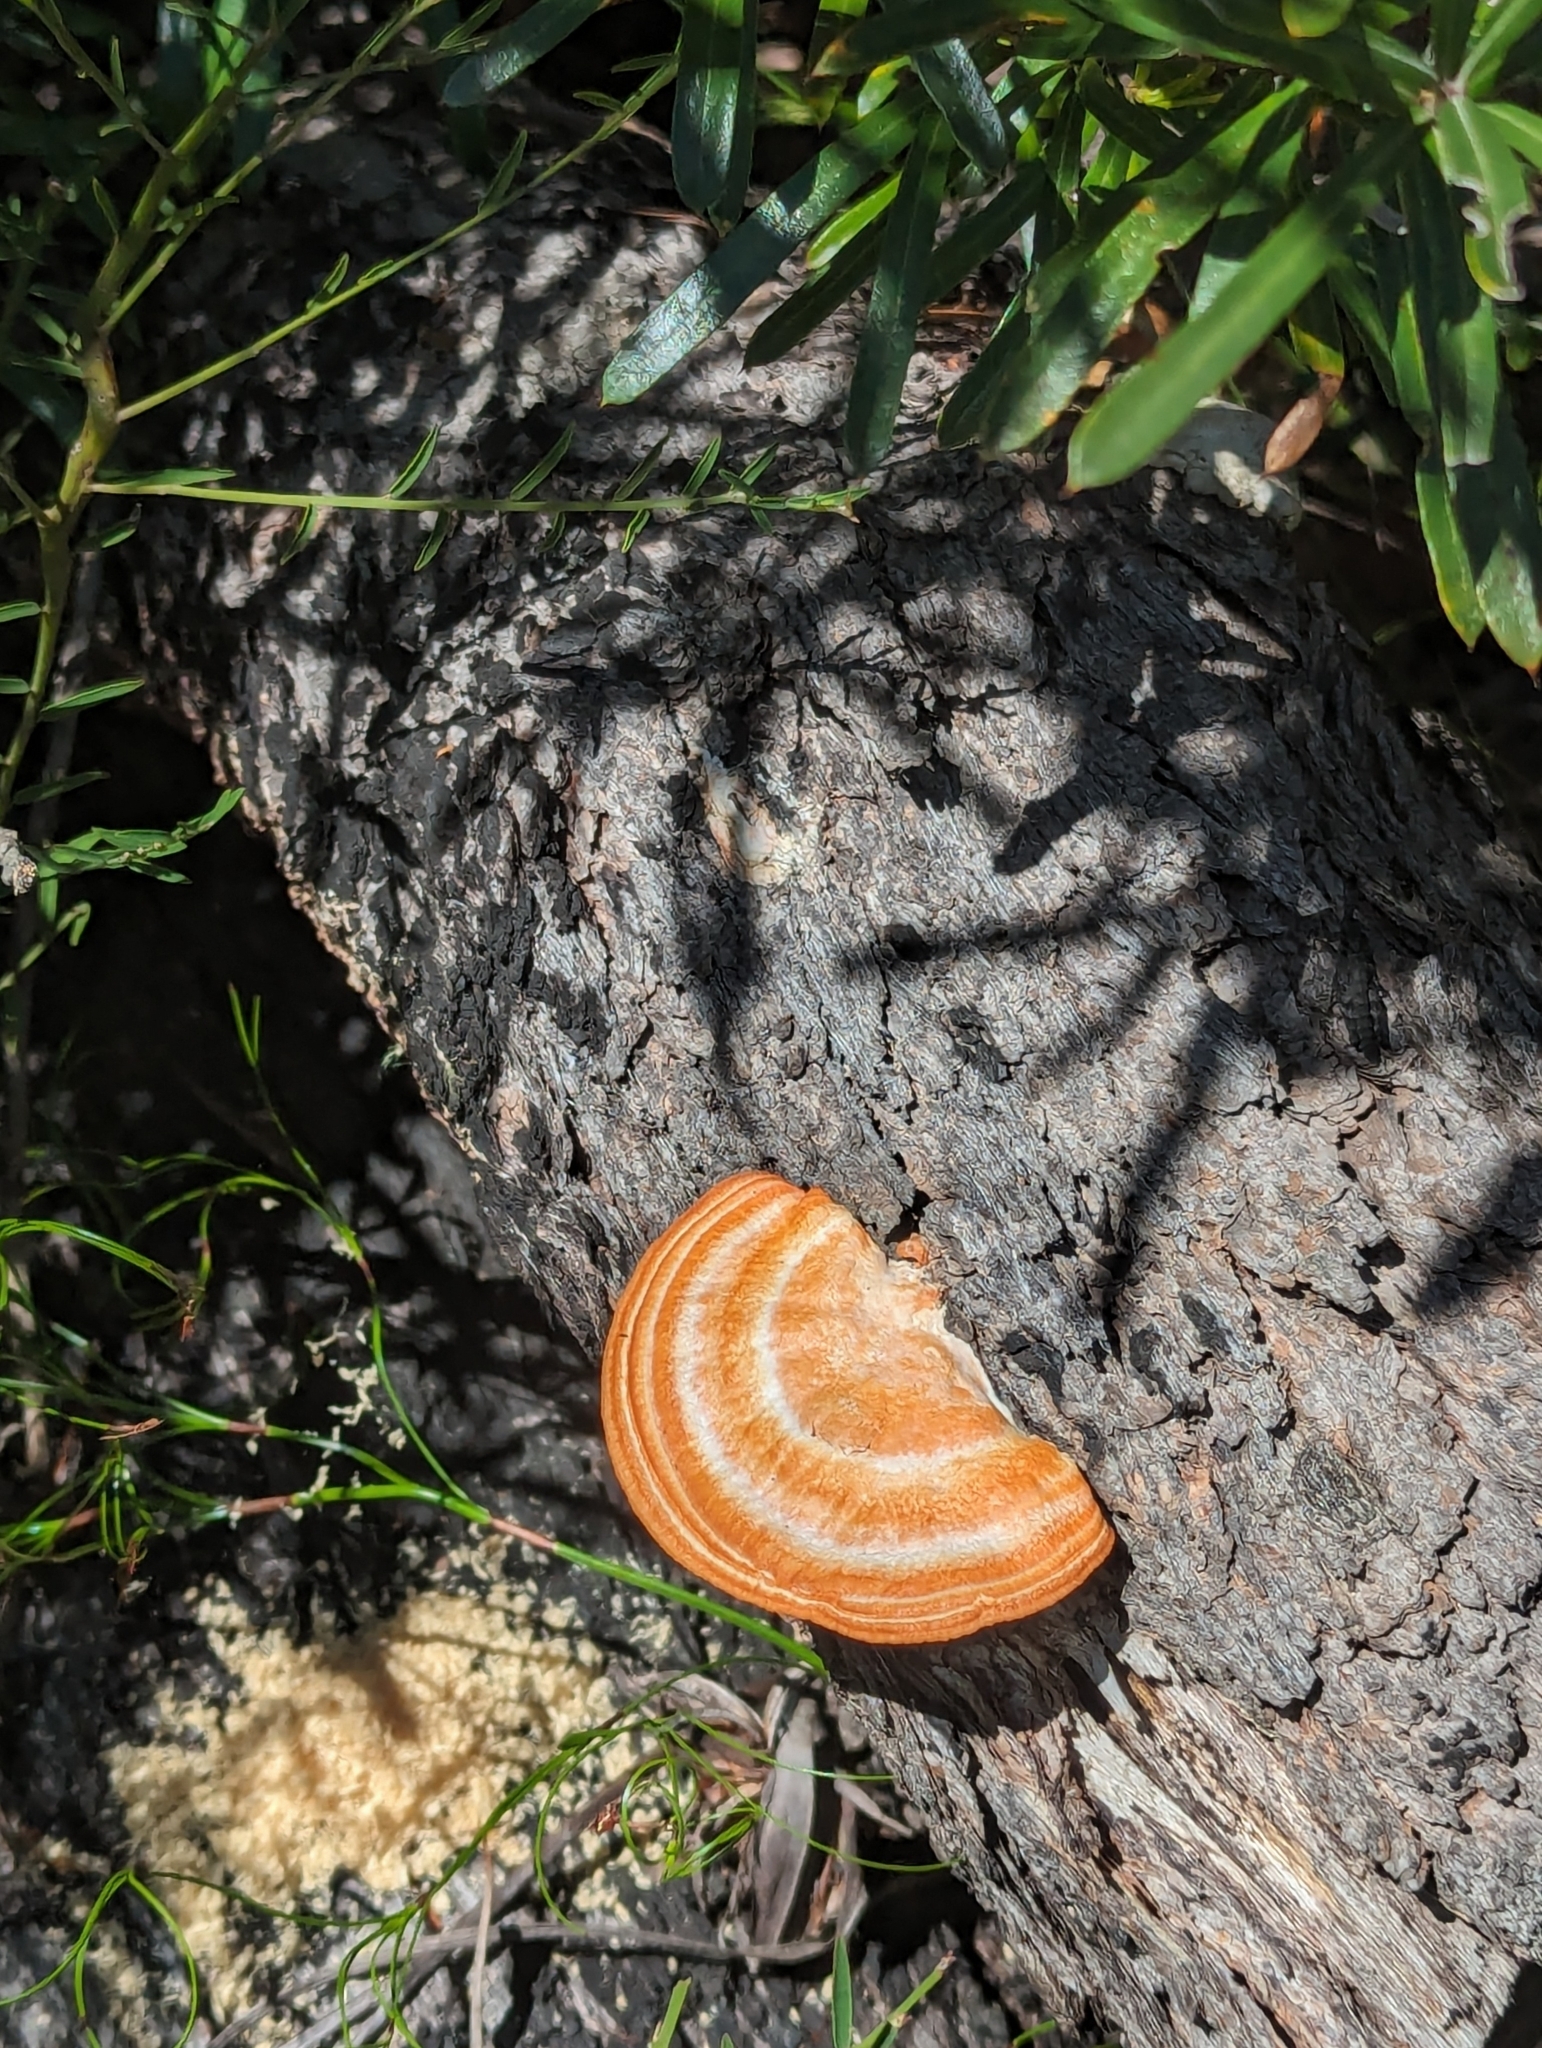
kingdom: Fungi
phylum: Basidiomycota
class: Agaricomycetes
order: Polyporales
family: Polyporaceae
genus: Trametes
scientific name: Trametes coccinea
